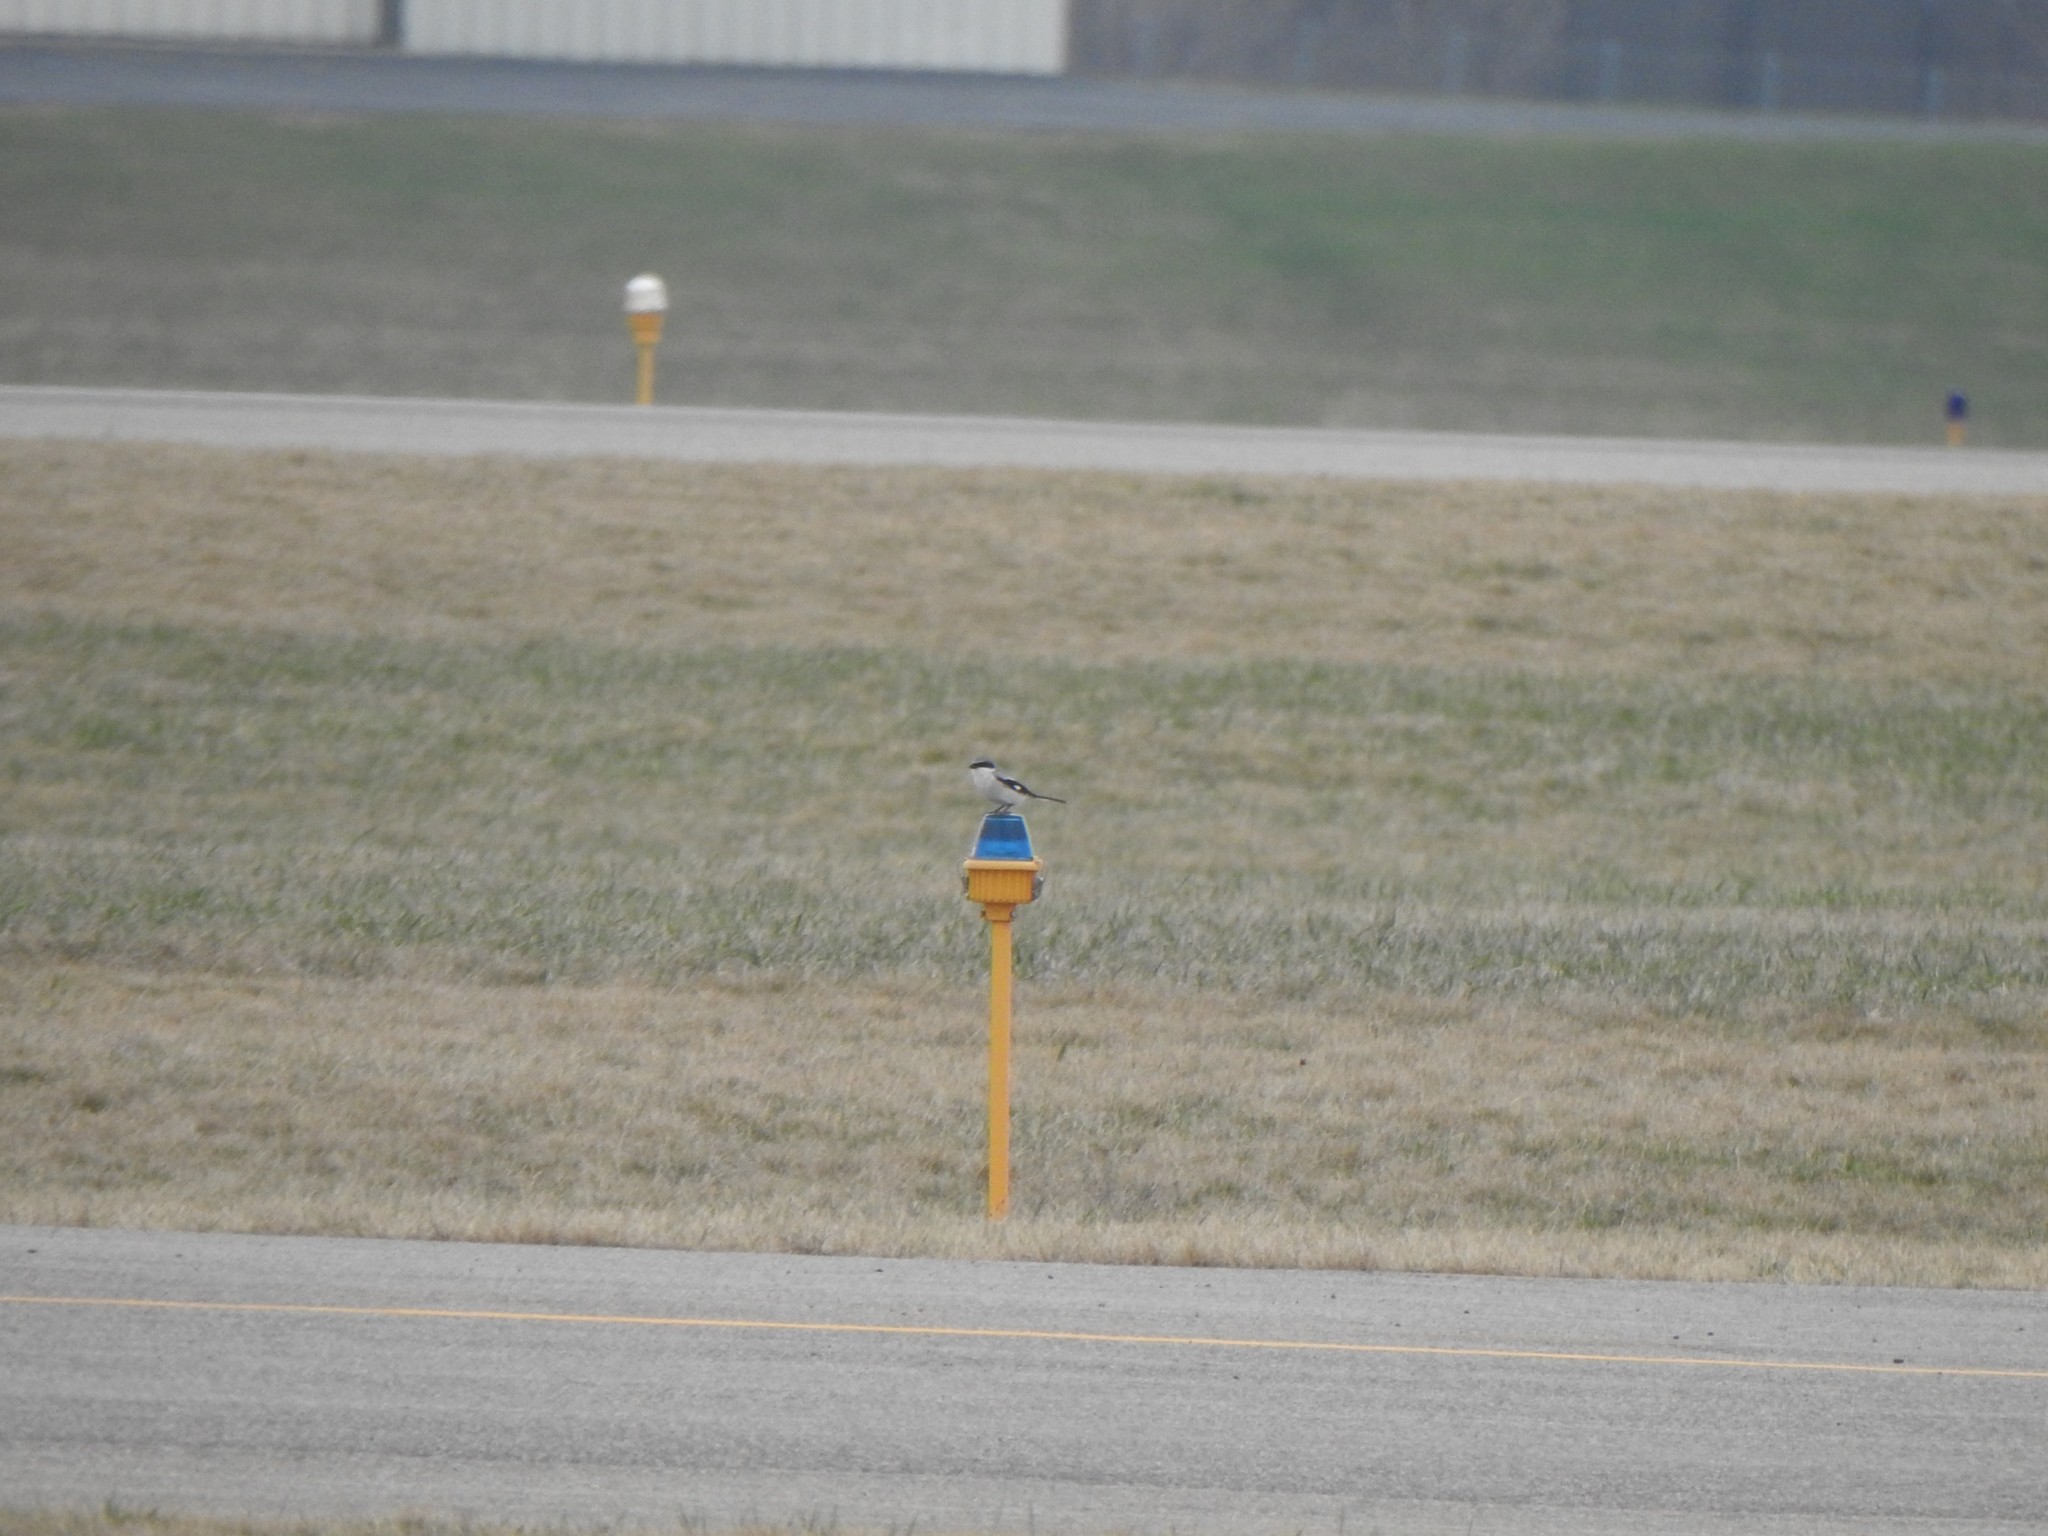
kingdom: Animalia
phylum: Chordata
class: Aves
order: Passeriformes
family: Laniidae
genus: Lanius
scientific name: Lanius ludovicianus
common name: Loggerhead shrike
